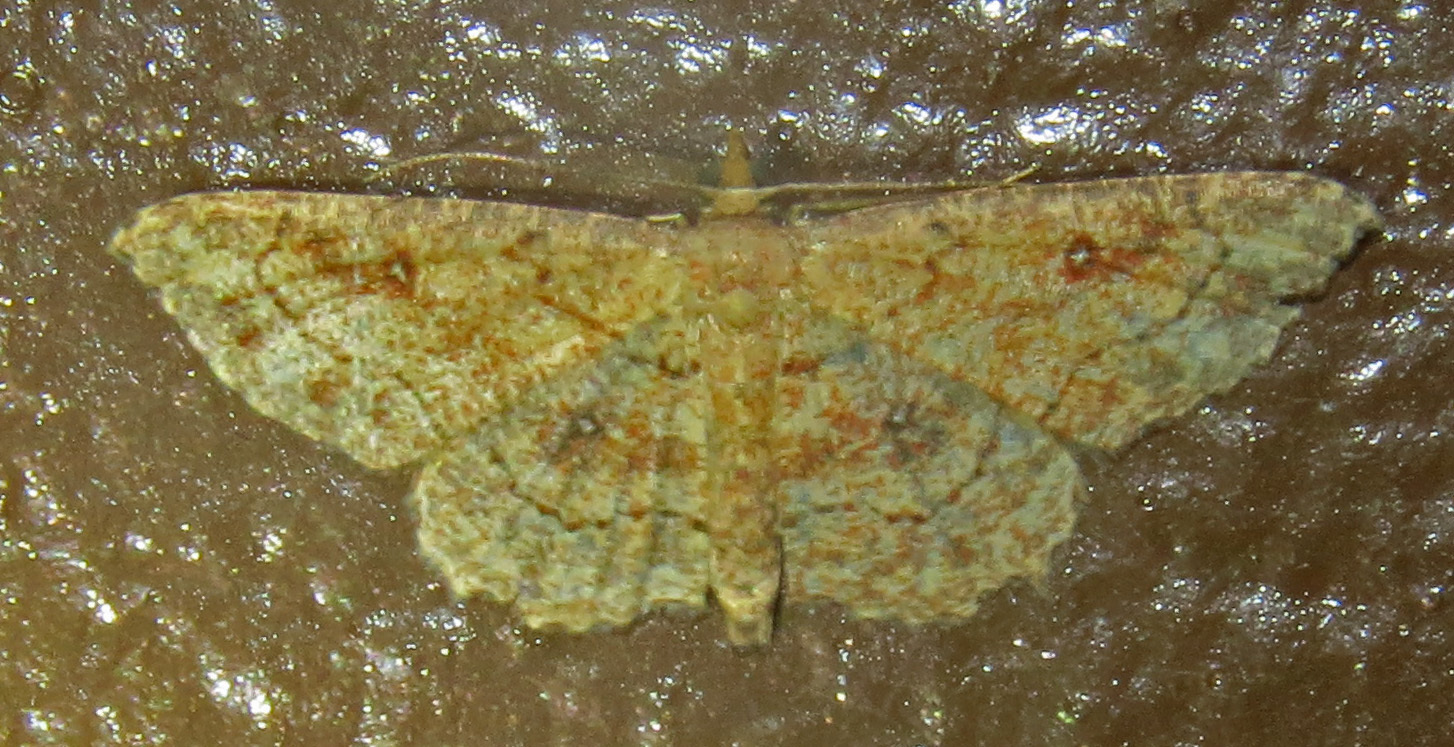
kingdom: Animalia
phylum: Arthropoda
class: Insecta
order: Lepidoptera
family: Geometridae
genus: Cyclophora
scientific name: Cyclophora nanaria
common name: Cankerworm
